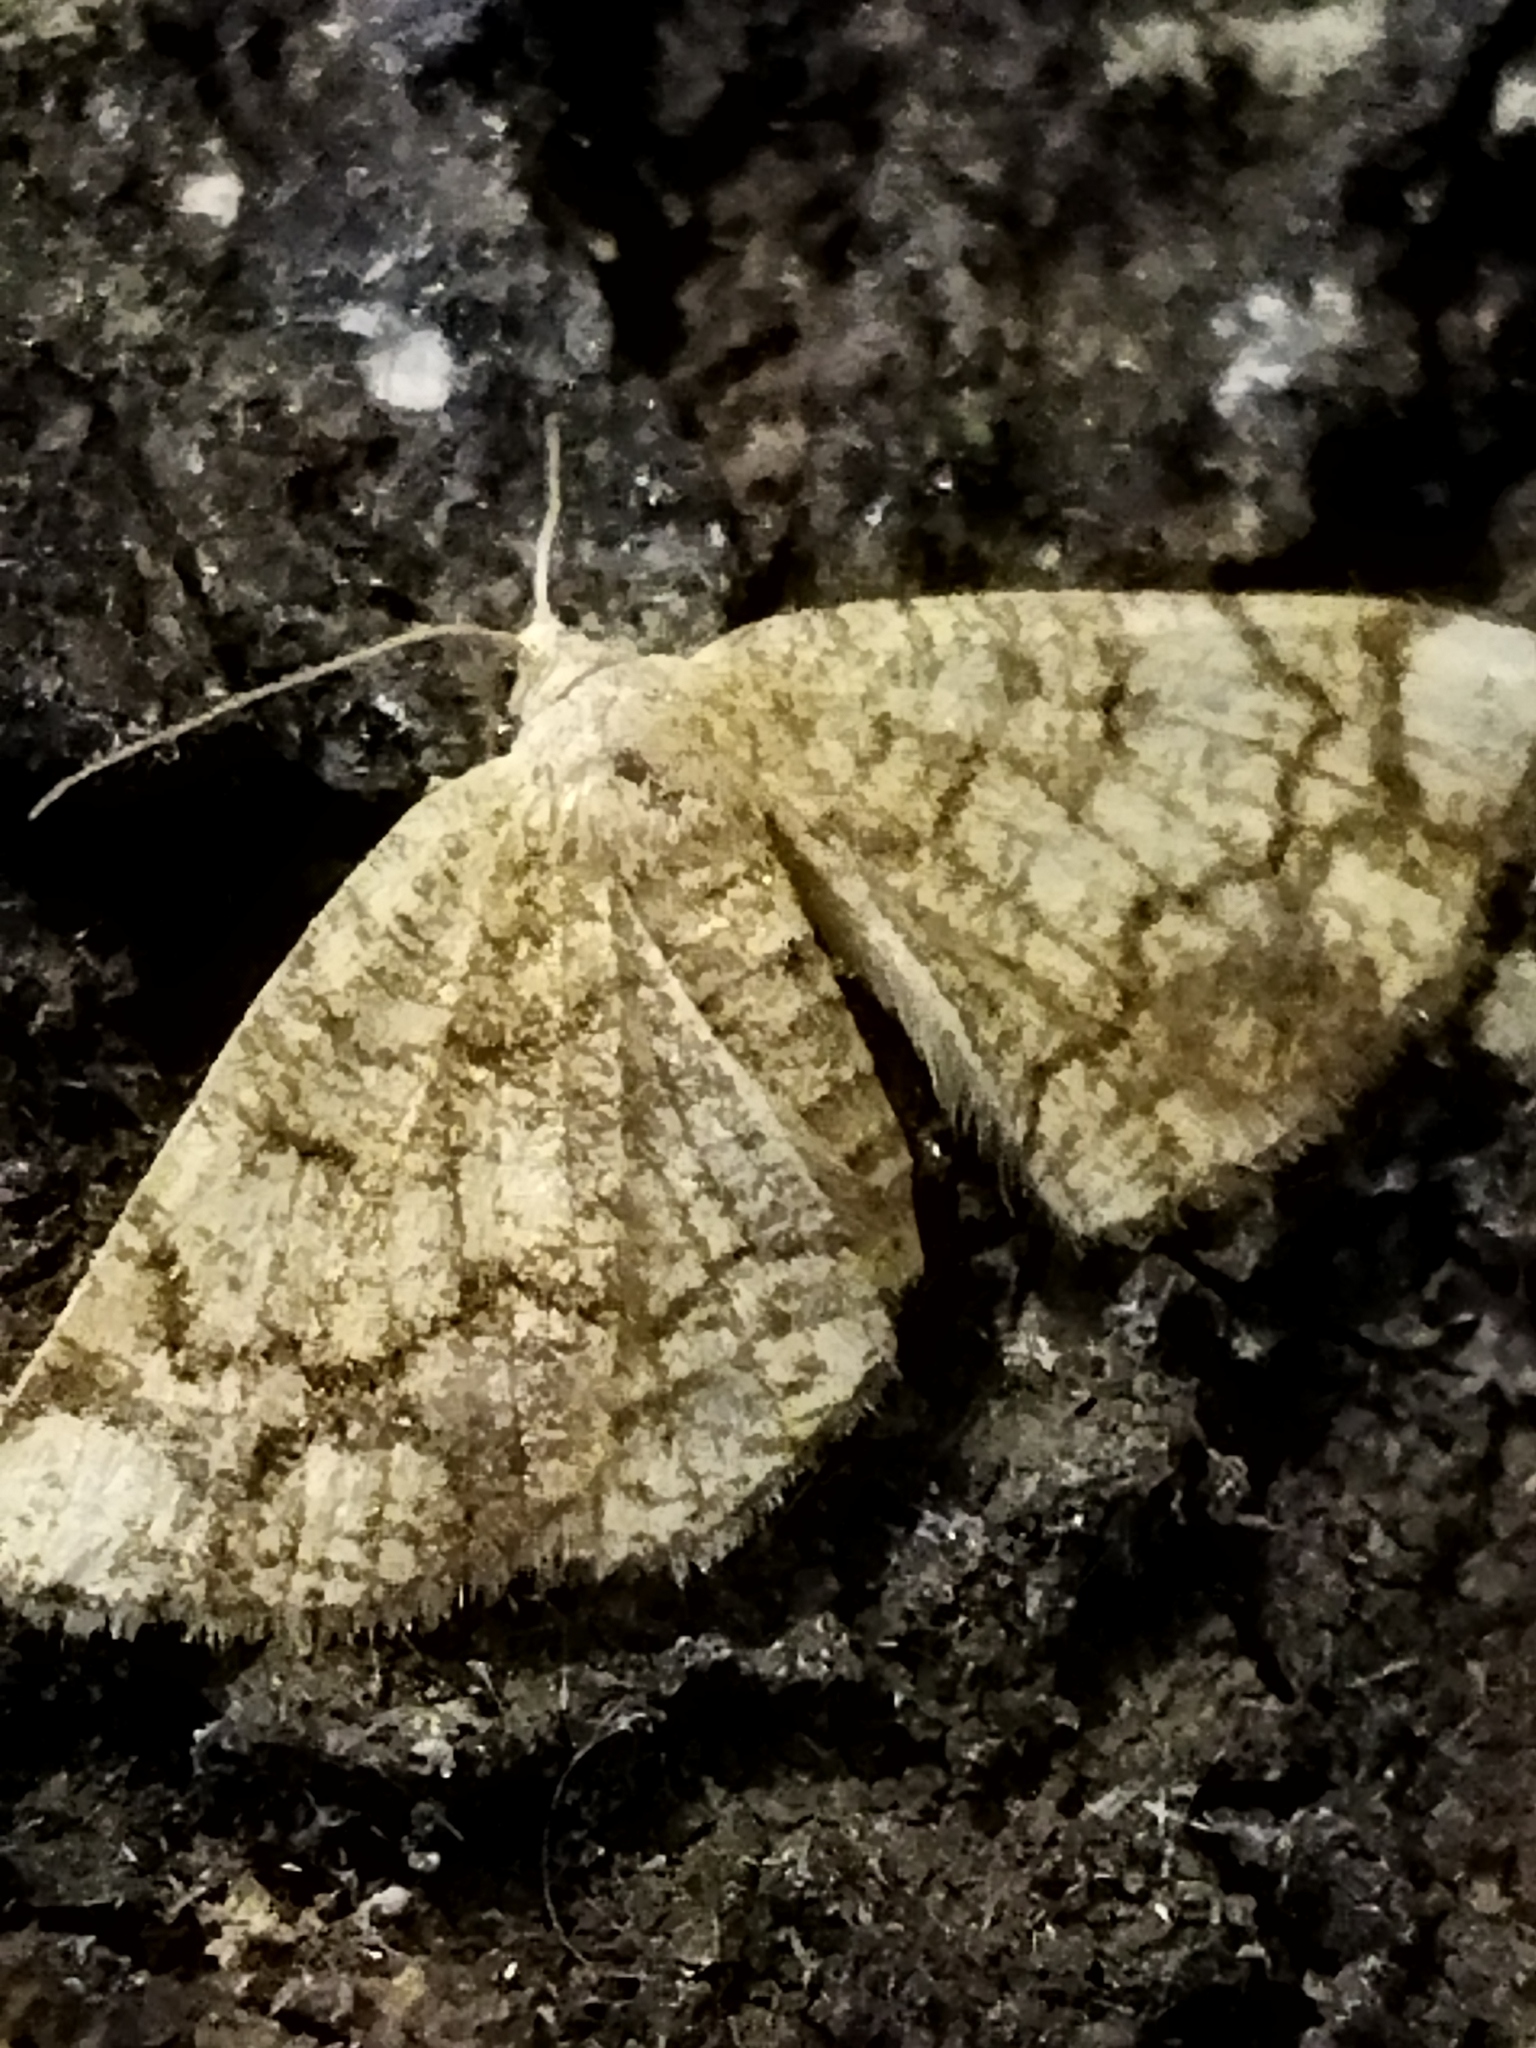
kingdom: Animalia
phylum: Arthropoda
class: Insecta
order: Lepidoptera
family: Geometridae
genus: Stegania
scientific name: Stegania dilectaria
